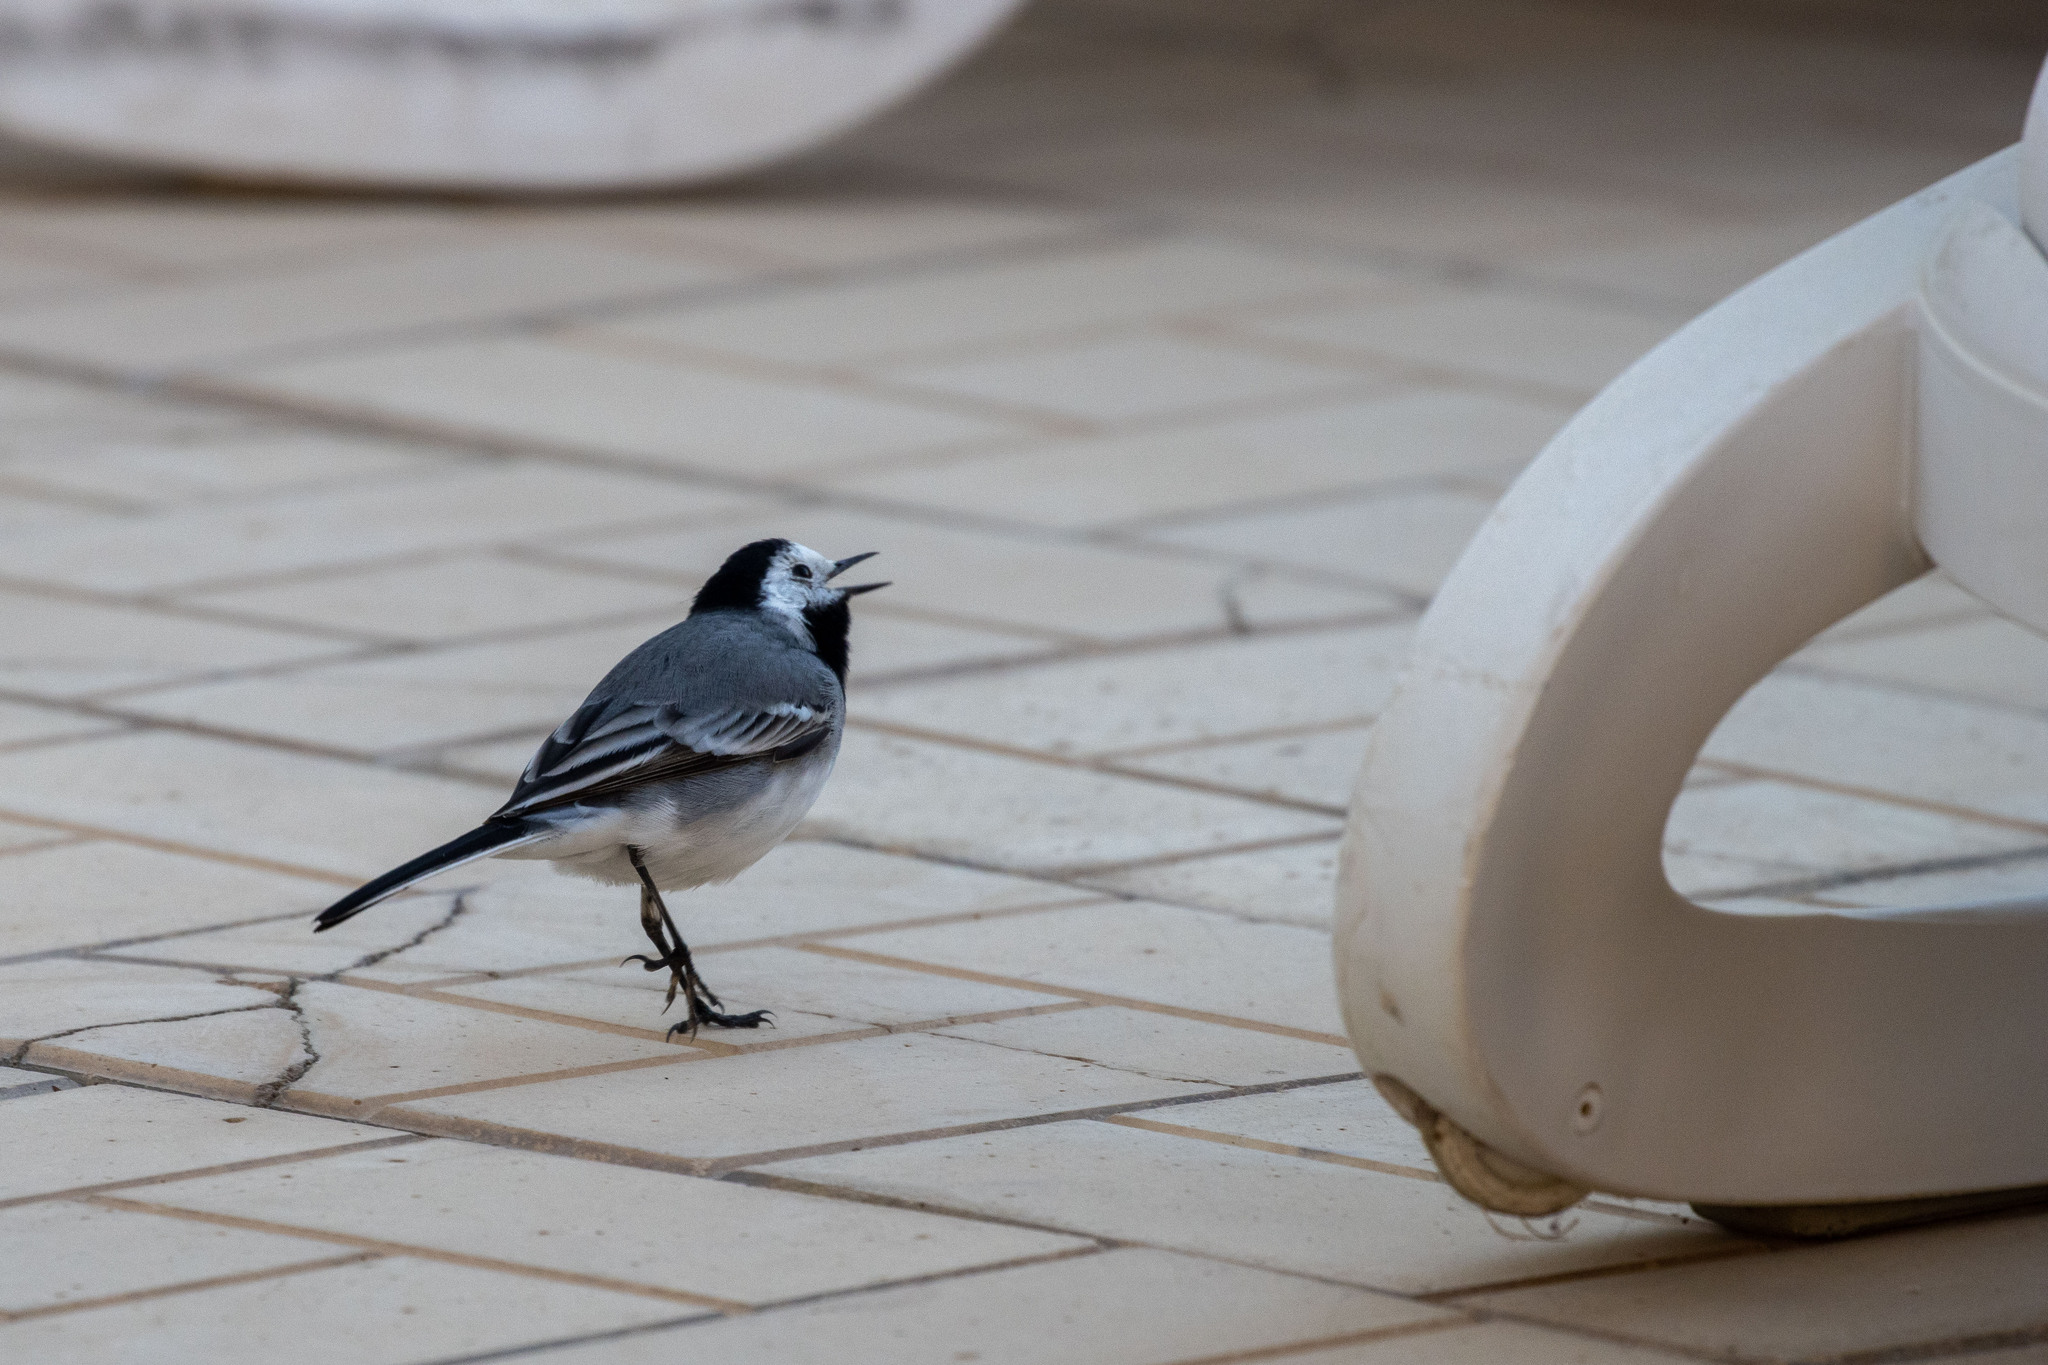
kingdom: Animalia
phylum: Chordata
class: Aves
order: Passeriformes
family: Motacillidae
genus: Motacilla
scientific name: Motacilla alba
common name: White wagtail
